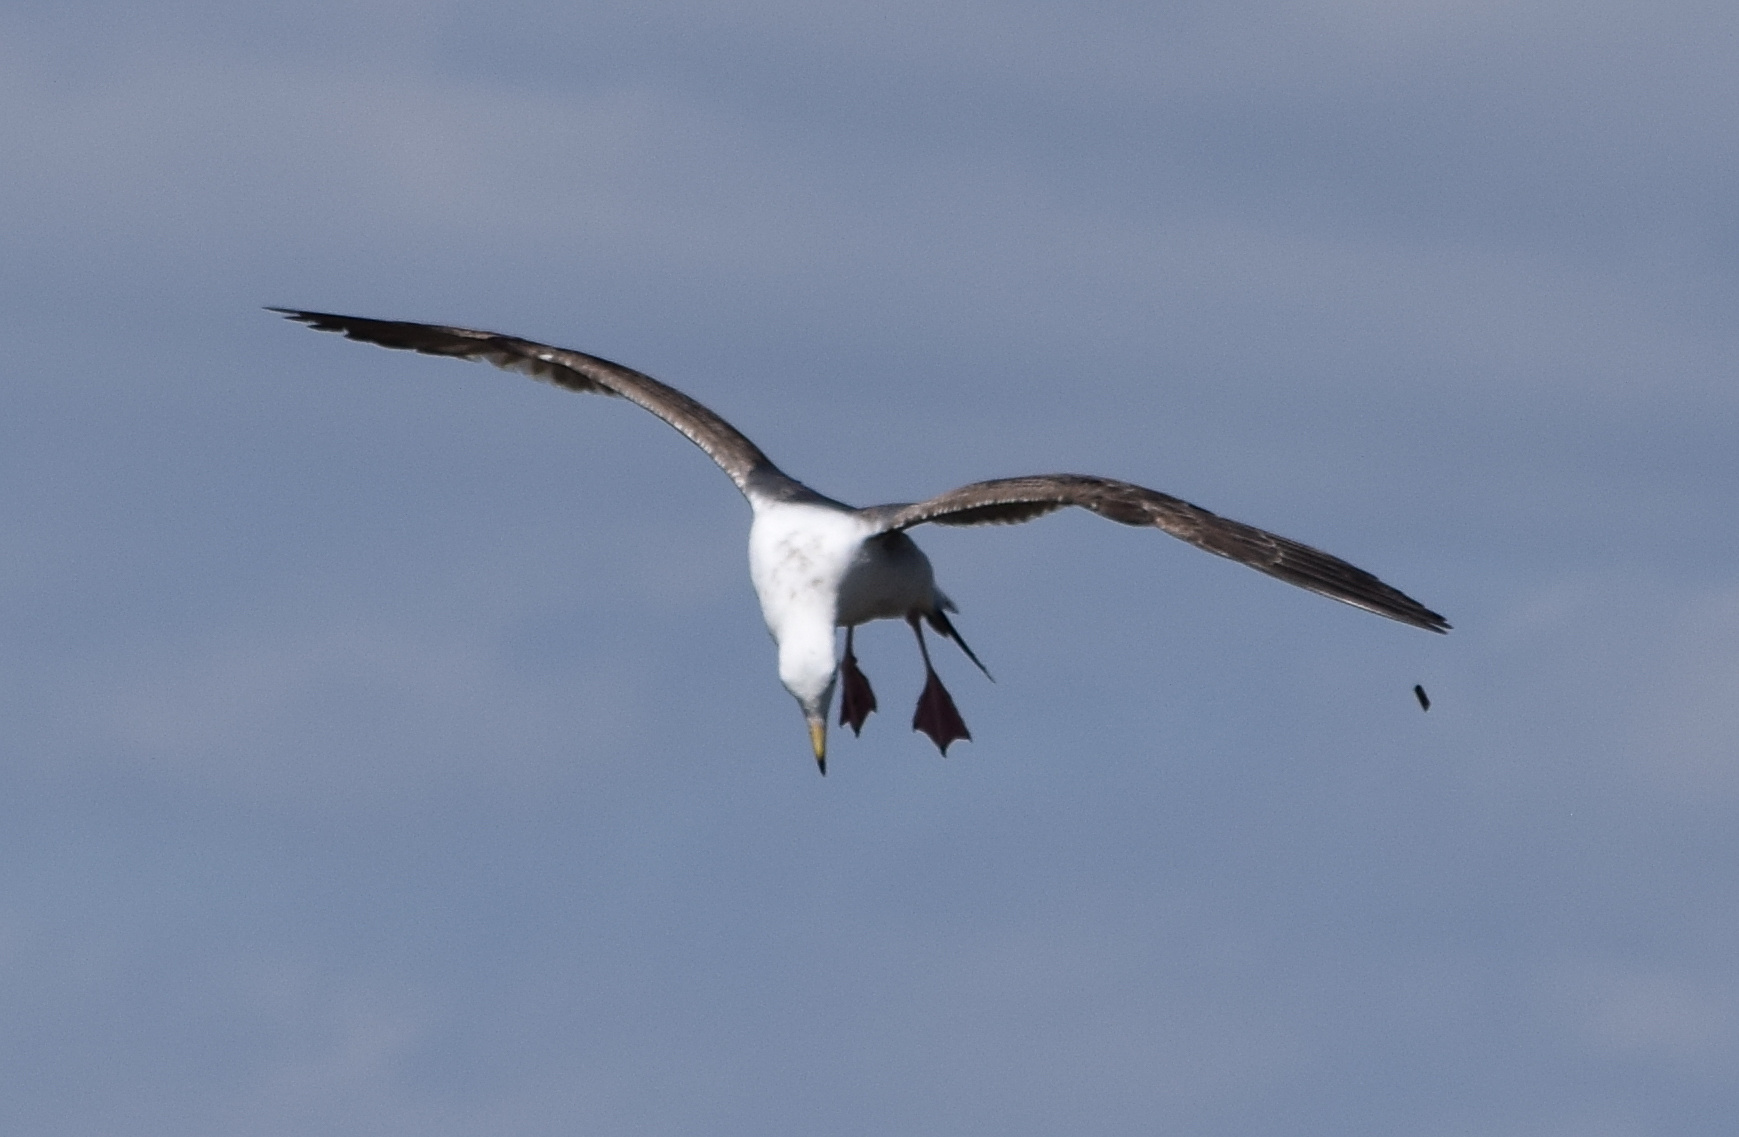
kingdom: Animalia
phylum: Chordata
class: Aves
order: Charadriiformes
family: Laridae
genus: Larus
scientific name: Larus occidentalis
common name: Western gull
